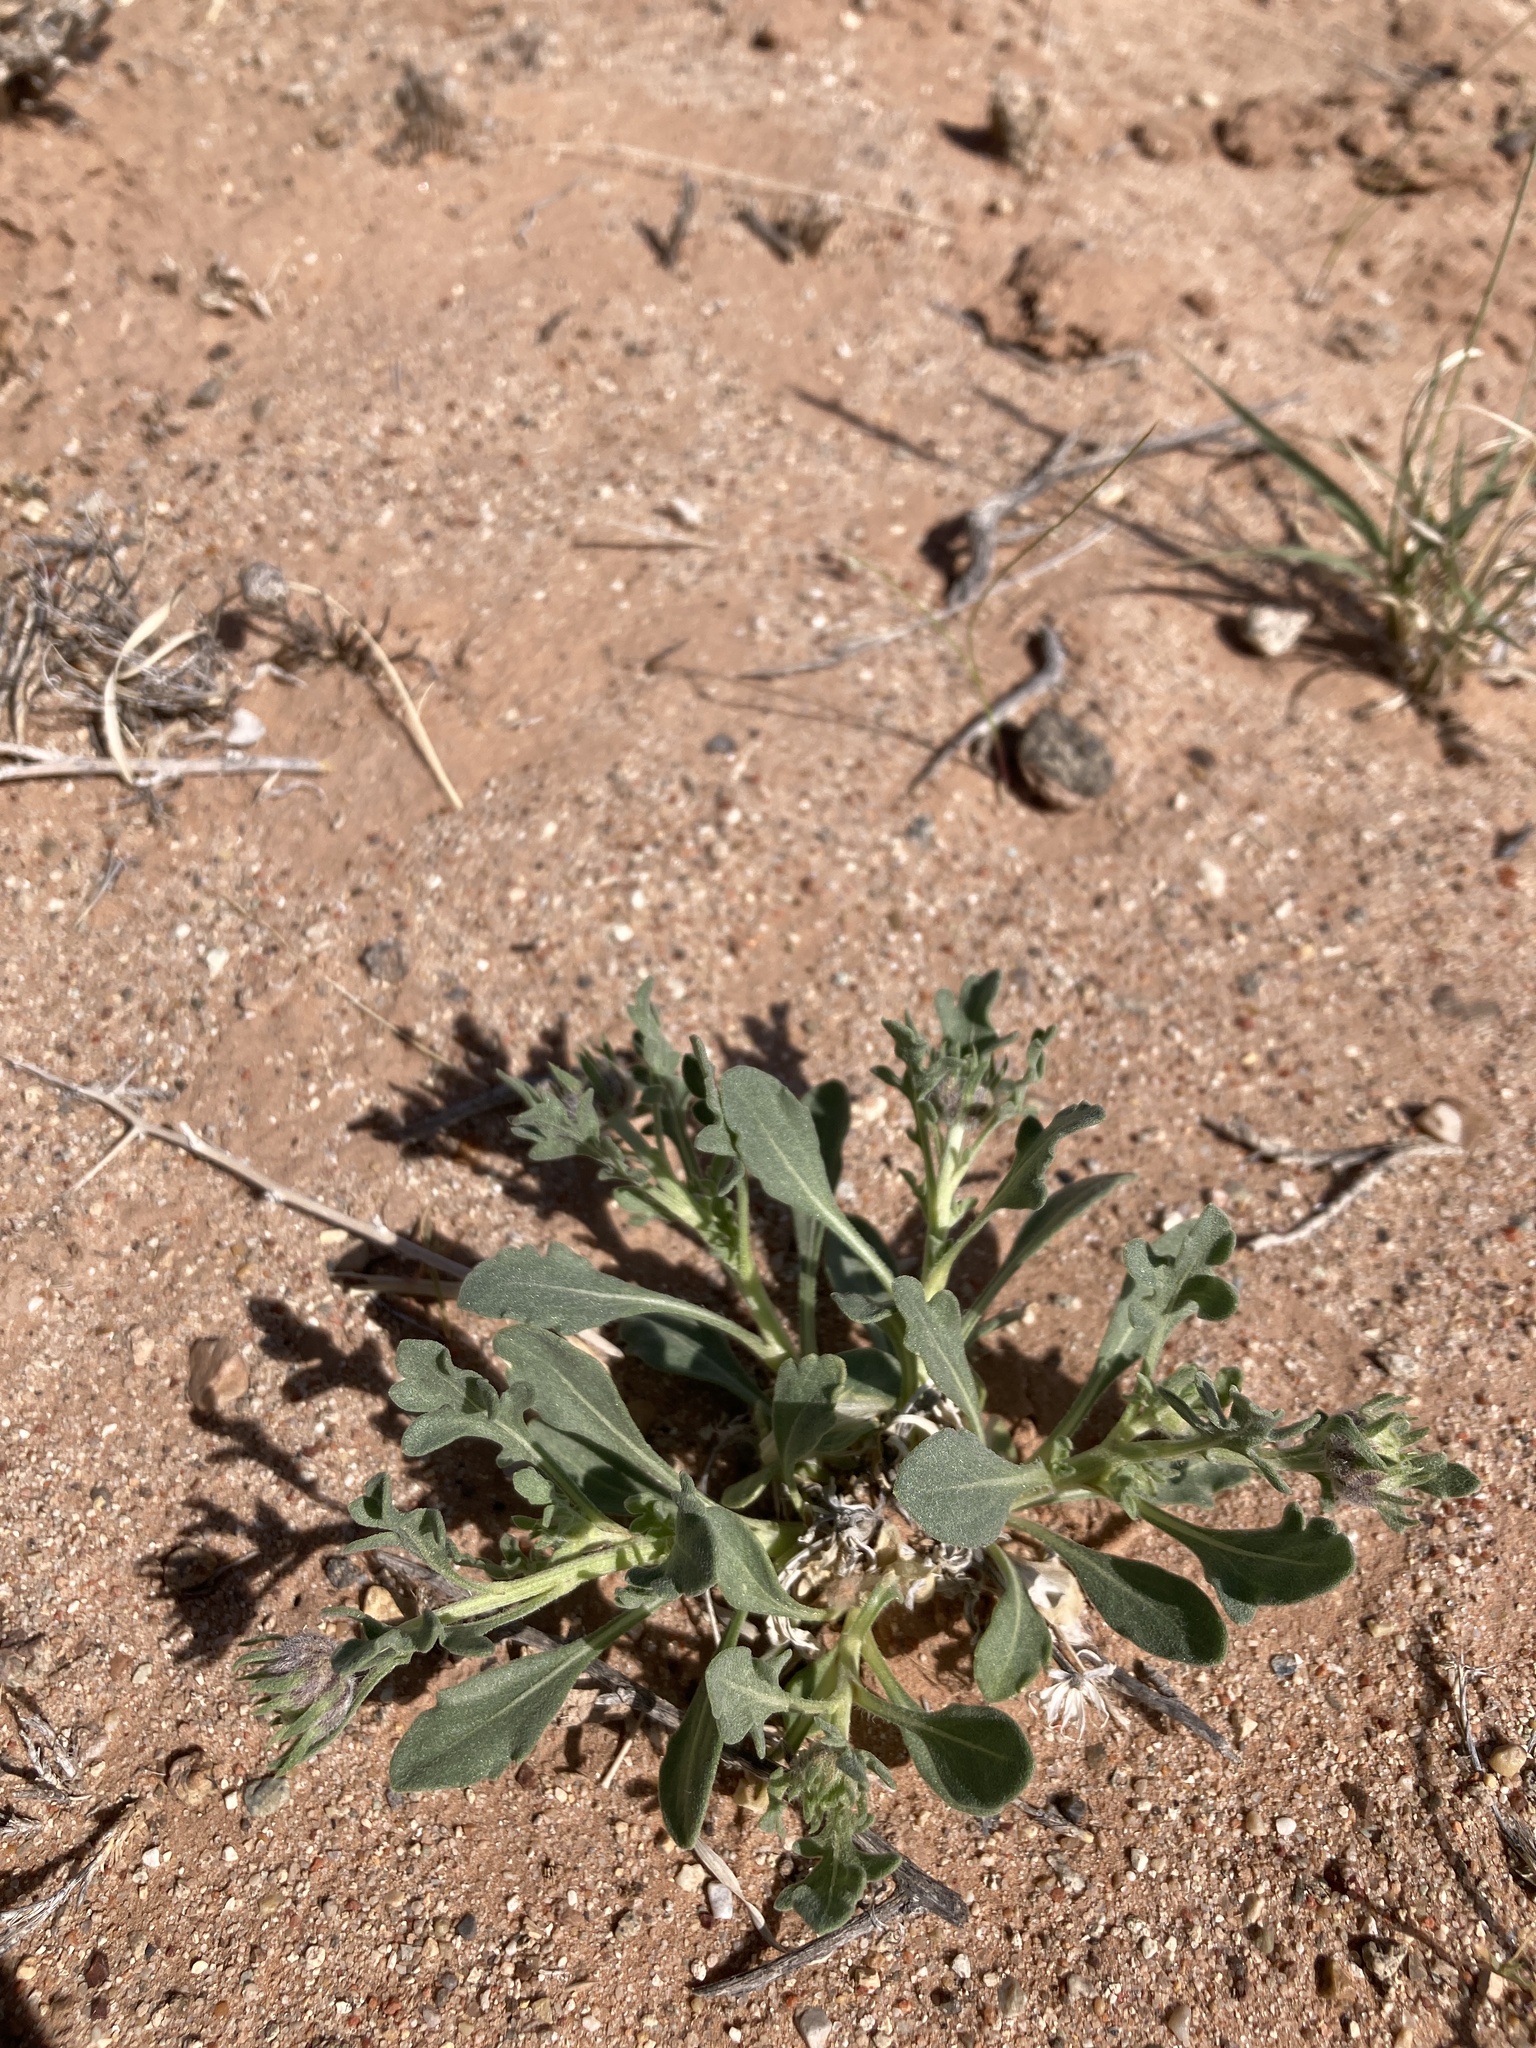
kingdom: Plantae
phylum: Tracheophyta
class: Magnoliopsida
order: Asterales
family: Asteraceae
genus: Gaillardia
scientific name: Gaillardia spathulata
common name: Basin blanket-flower
